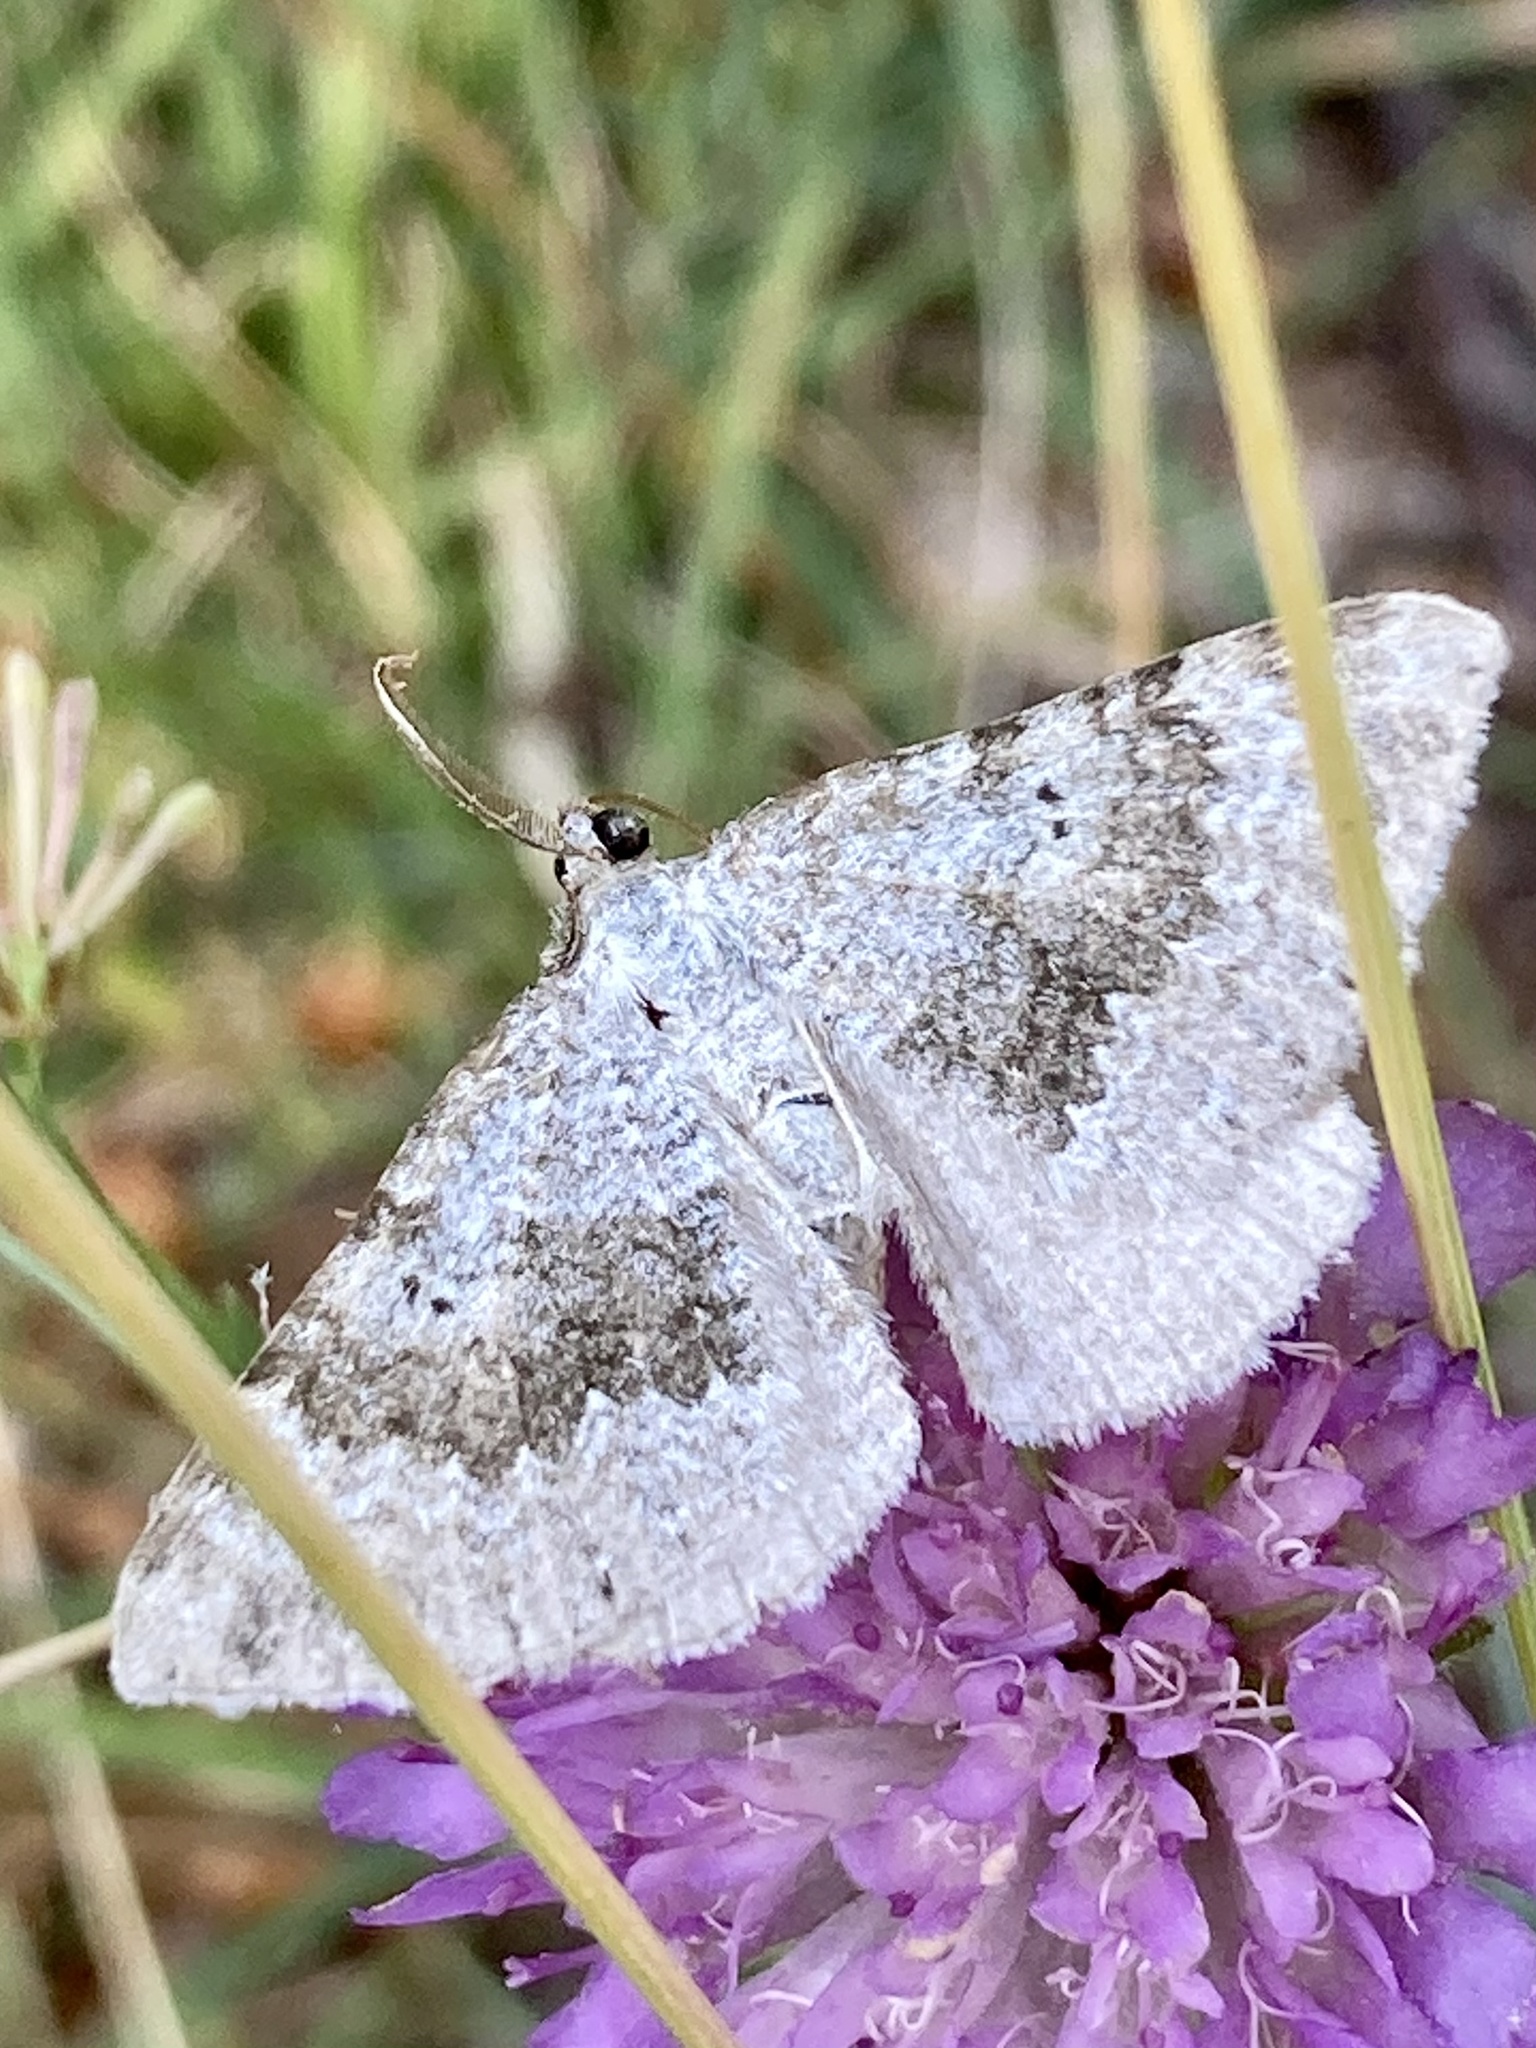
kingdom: Animalia
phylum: Arthropoda
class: Insecta
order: Lepidoptera
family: Geometridae
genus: Scotopteryx
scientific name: Scotopteryx bipunctaria
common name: Chalk carpet
